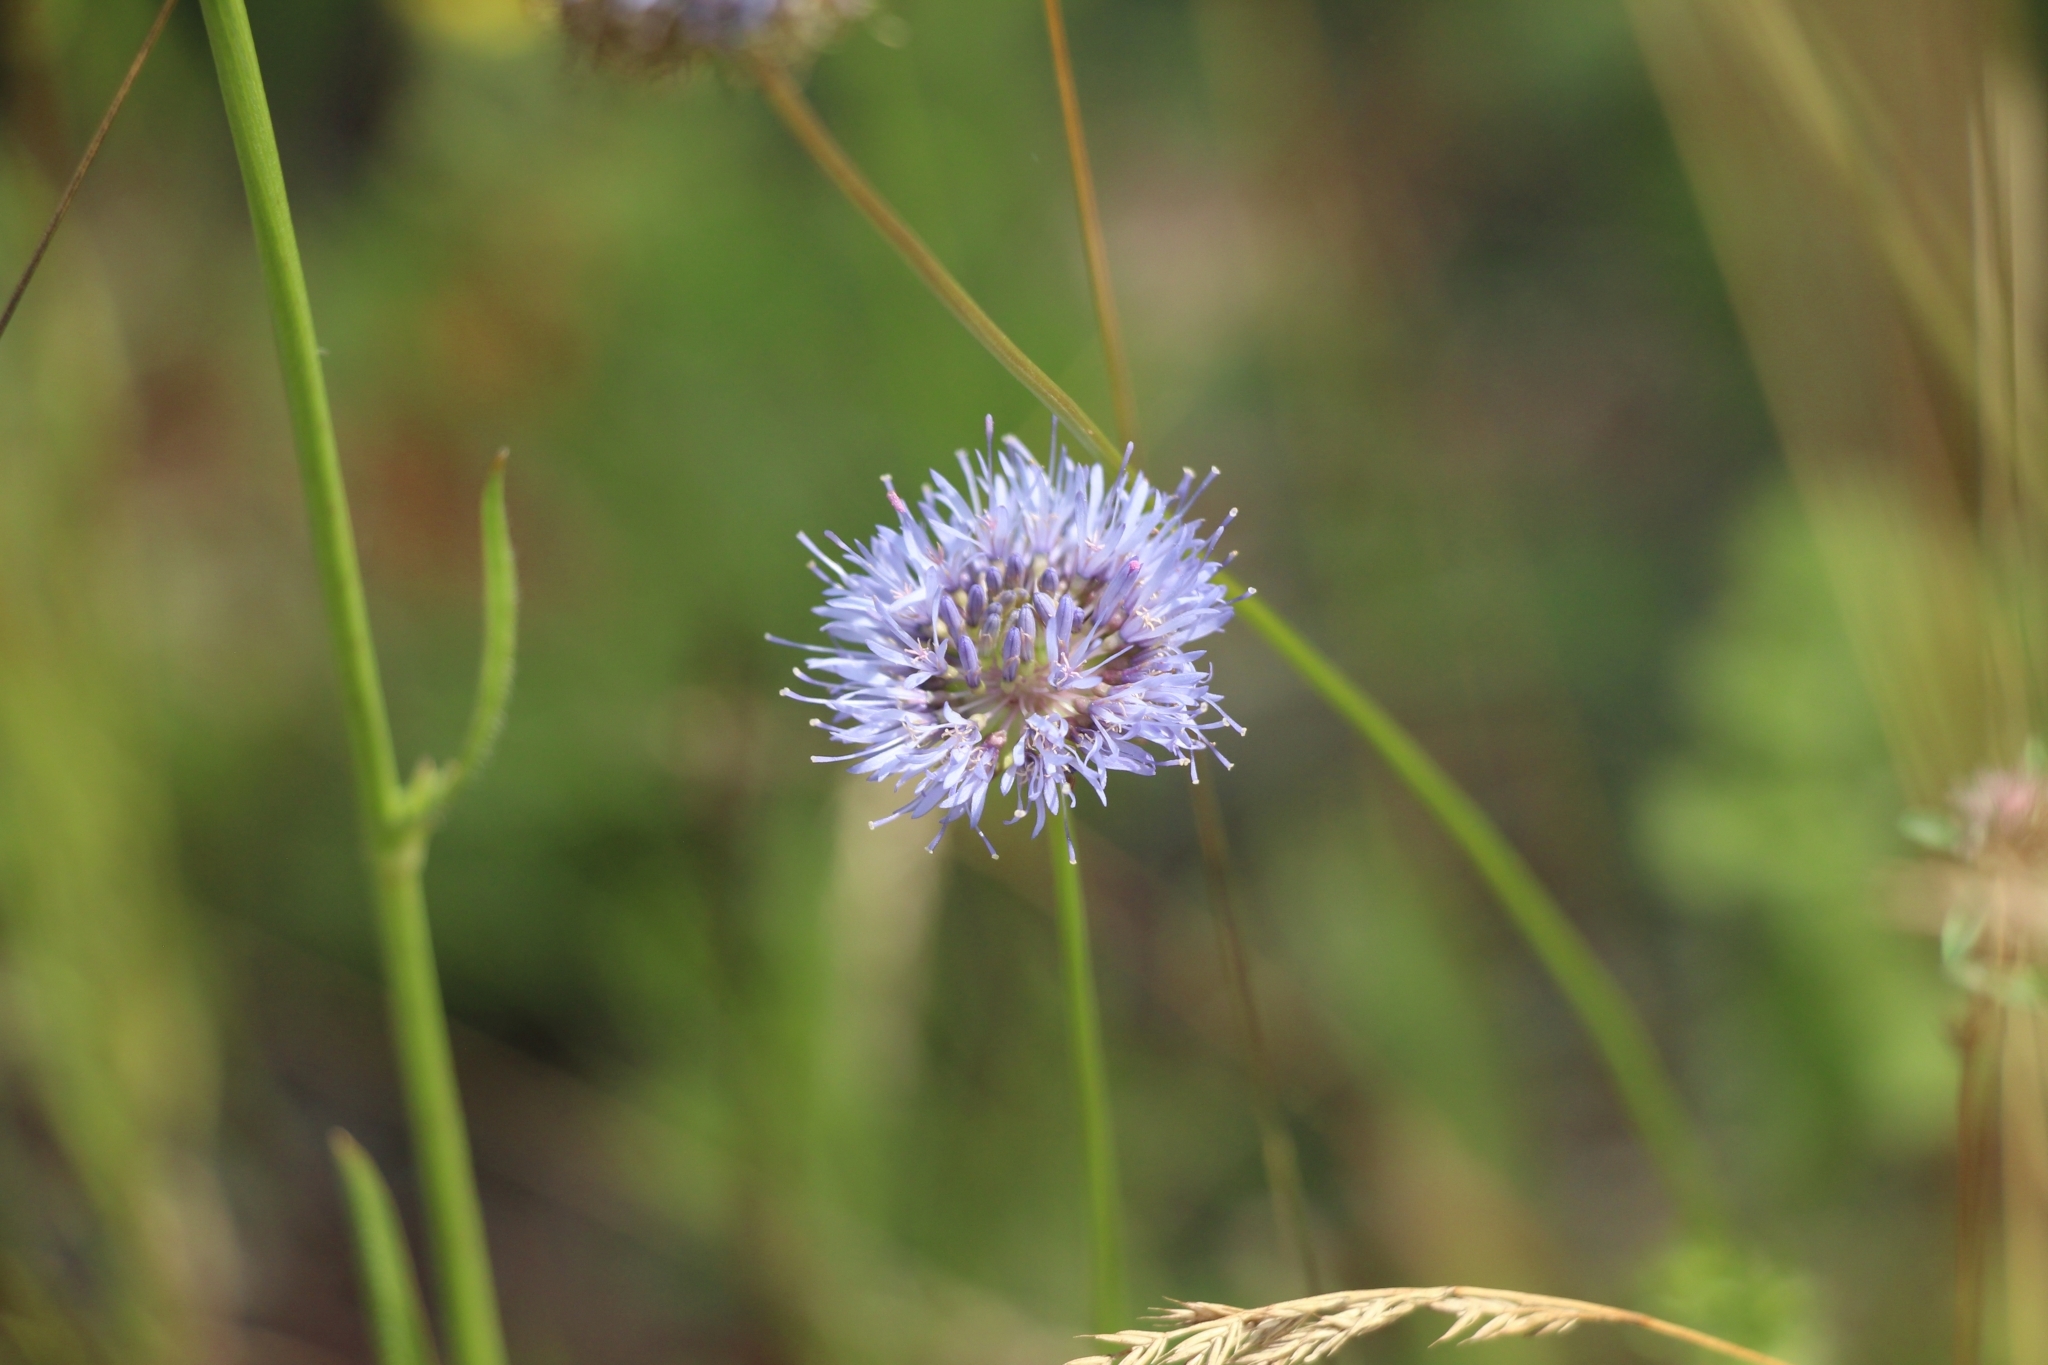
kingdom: Plantae
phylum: Tracheophyta
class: Magnoliopsida
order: Asterales
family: Campanulaceae
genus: Jasione
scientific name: Jasione montana
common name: Sheep's-bit
